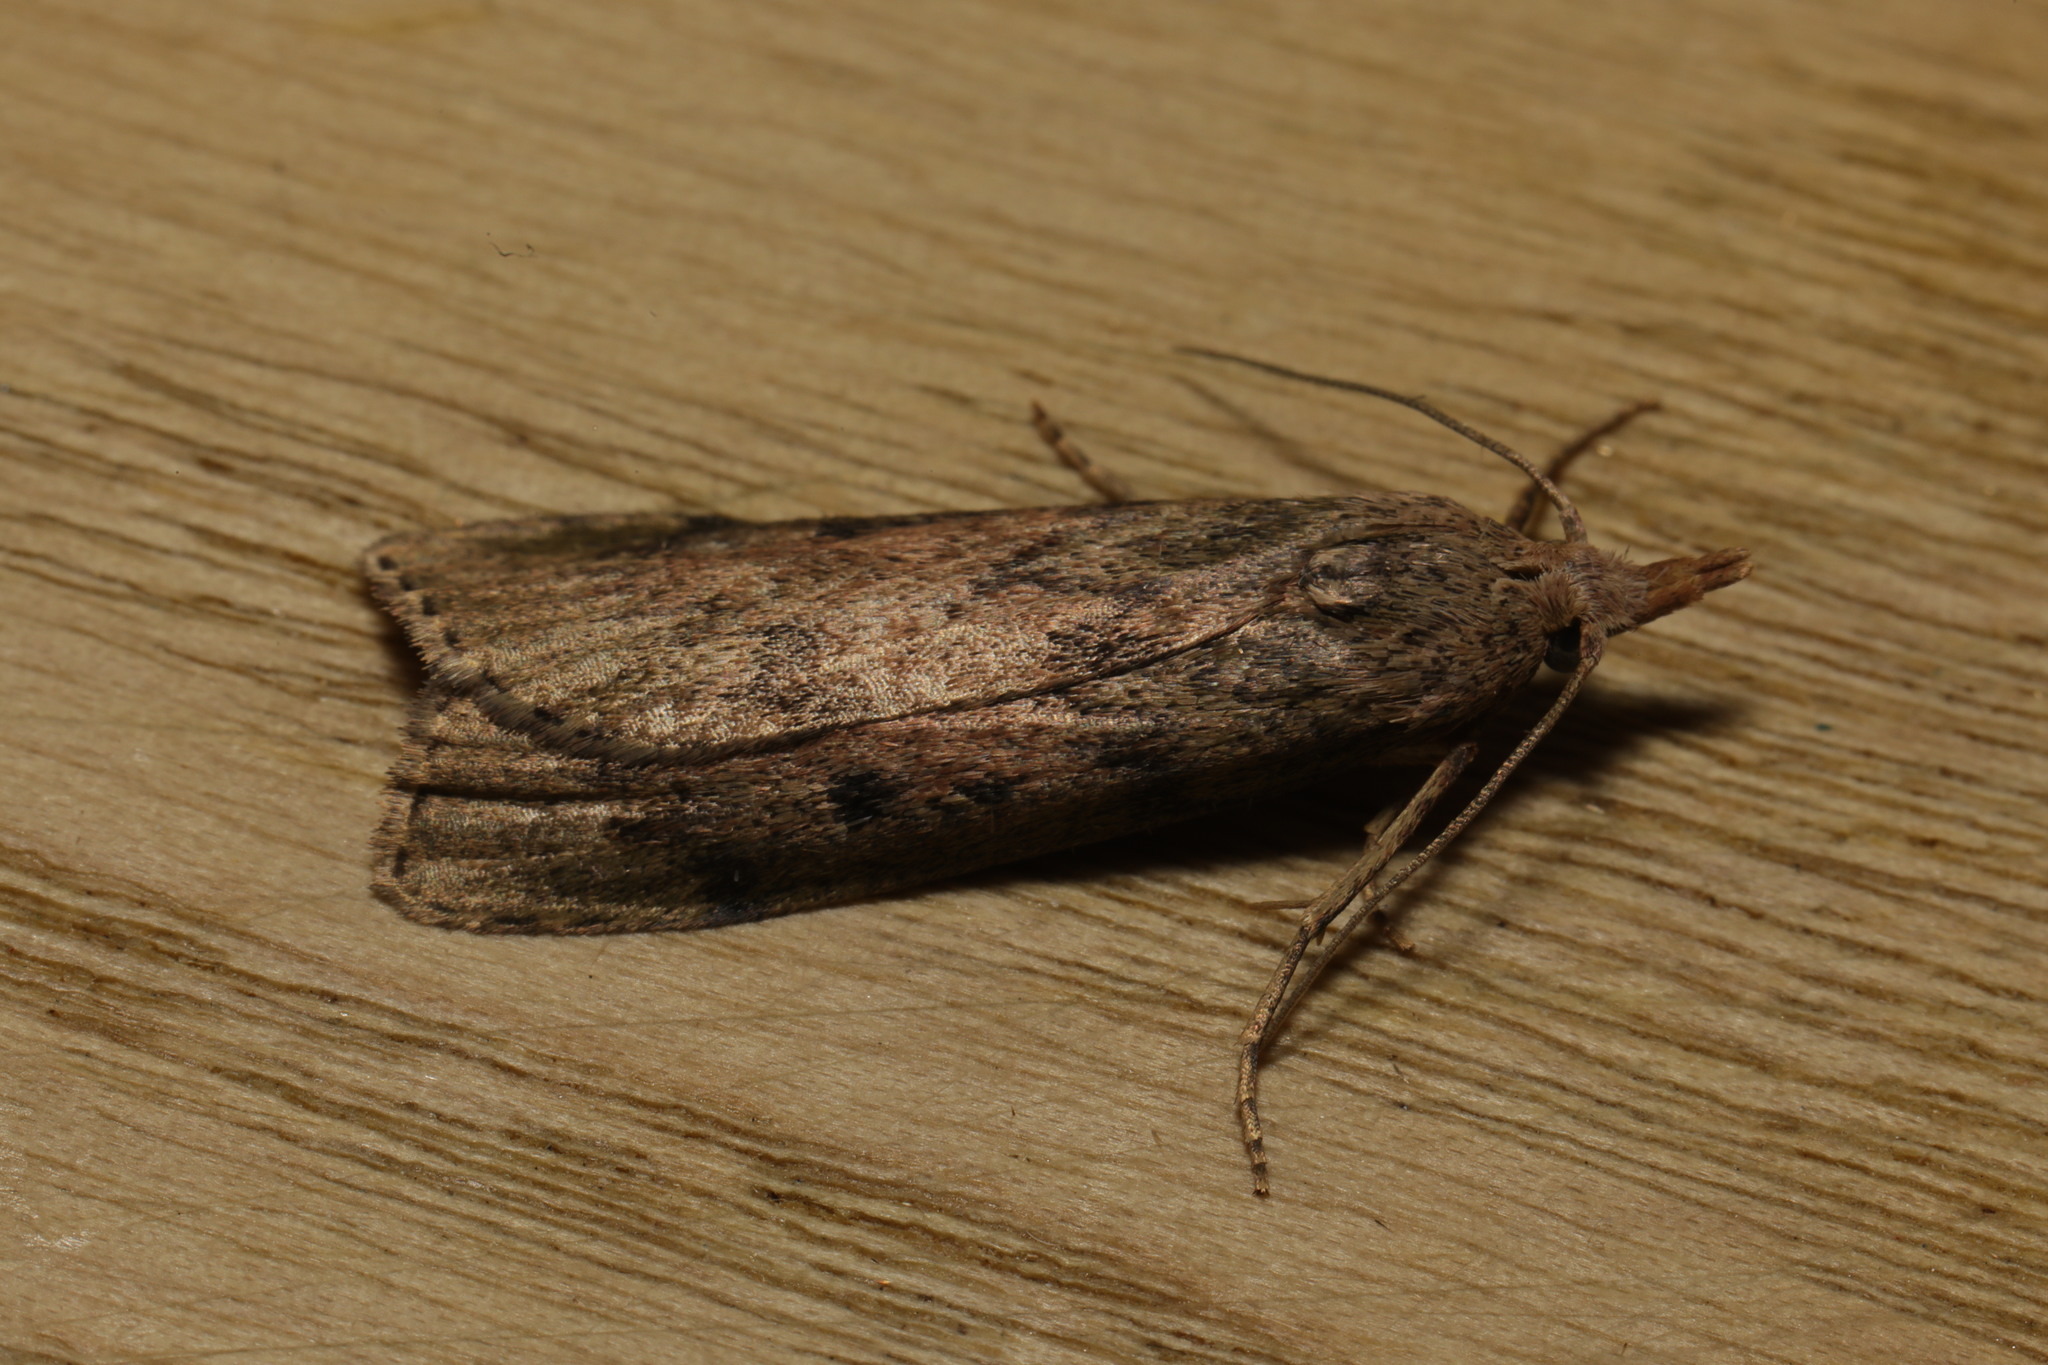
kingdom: Animalia
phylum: Arthropoda
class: Insecta
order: Lepidoptera
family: Pyralidae
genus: Aphomia
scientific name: Aphomia sociella
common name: Bee moth
